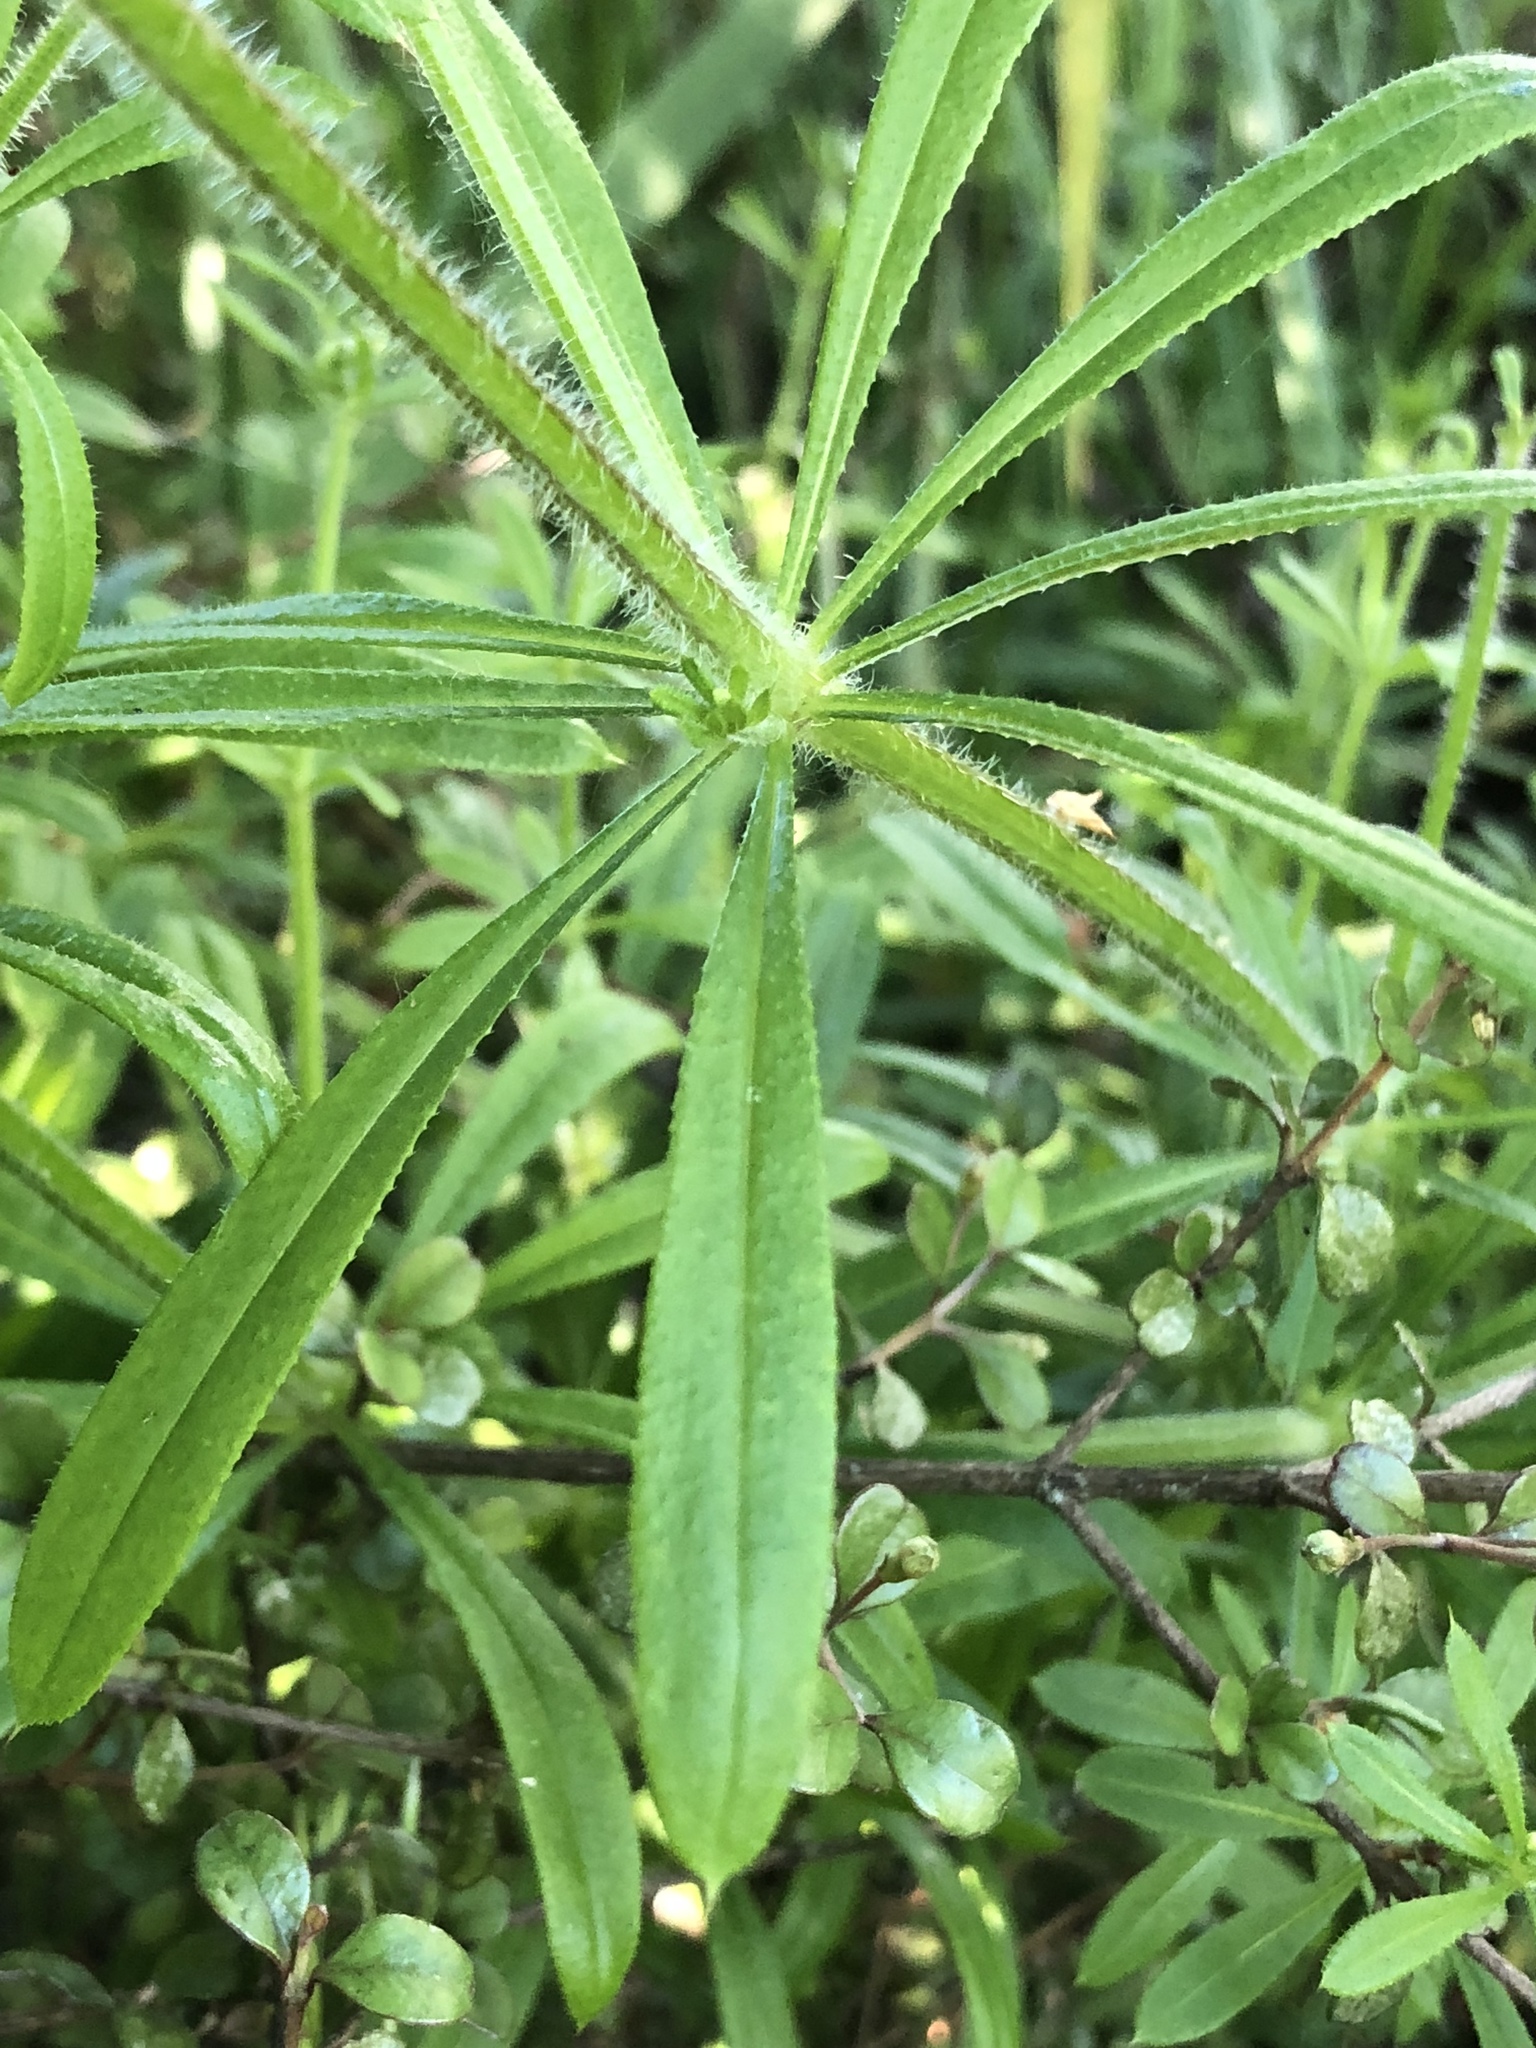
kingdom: Plantae
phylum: Tracheophyta
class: Magnoliopsida
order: Gentianales
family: Rubiaceae
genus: Galium
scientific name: Galium aparine
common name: Cleavers
